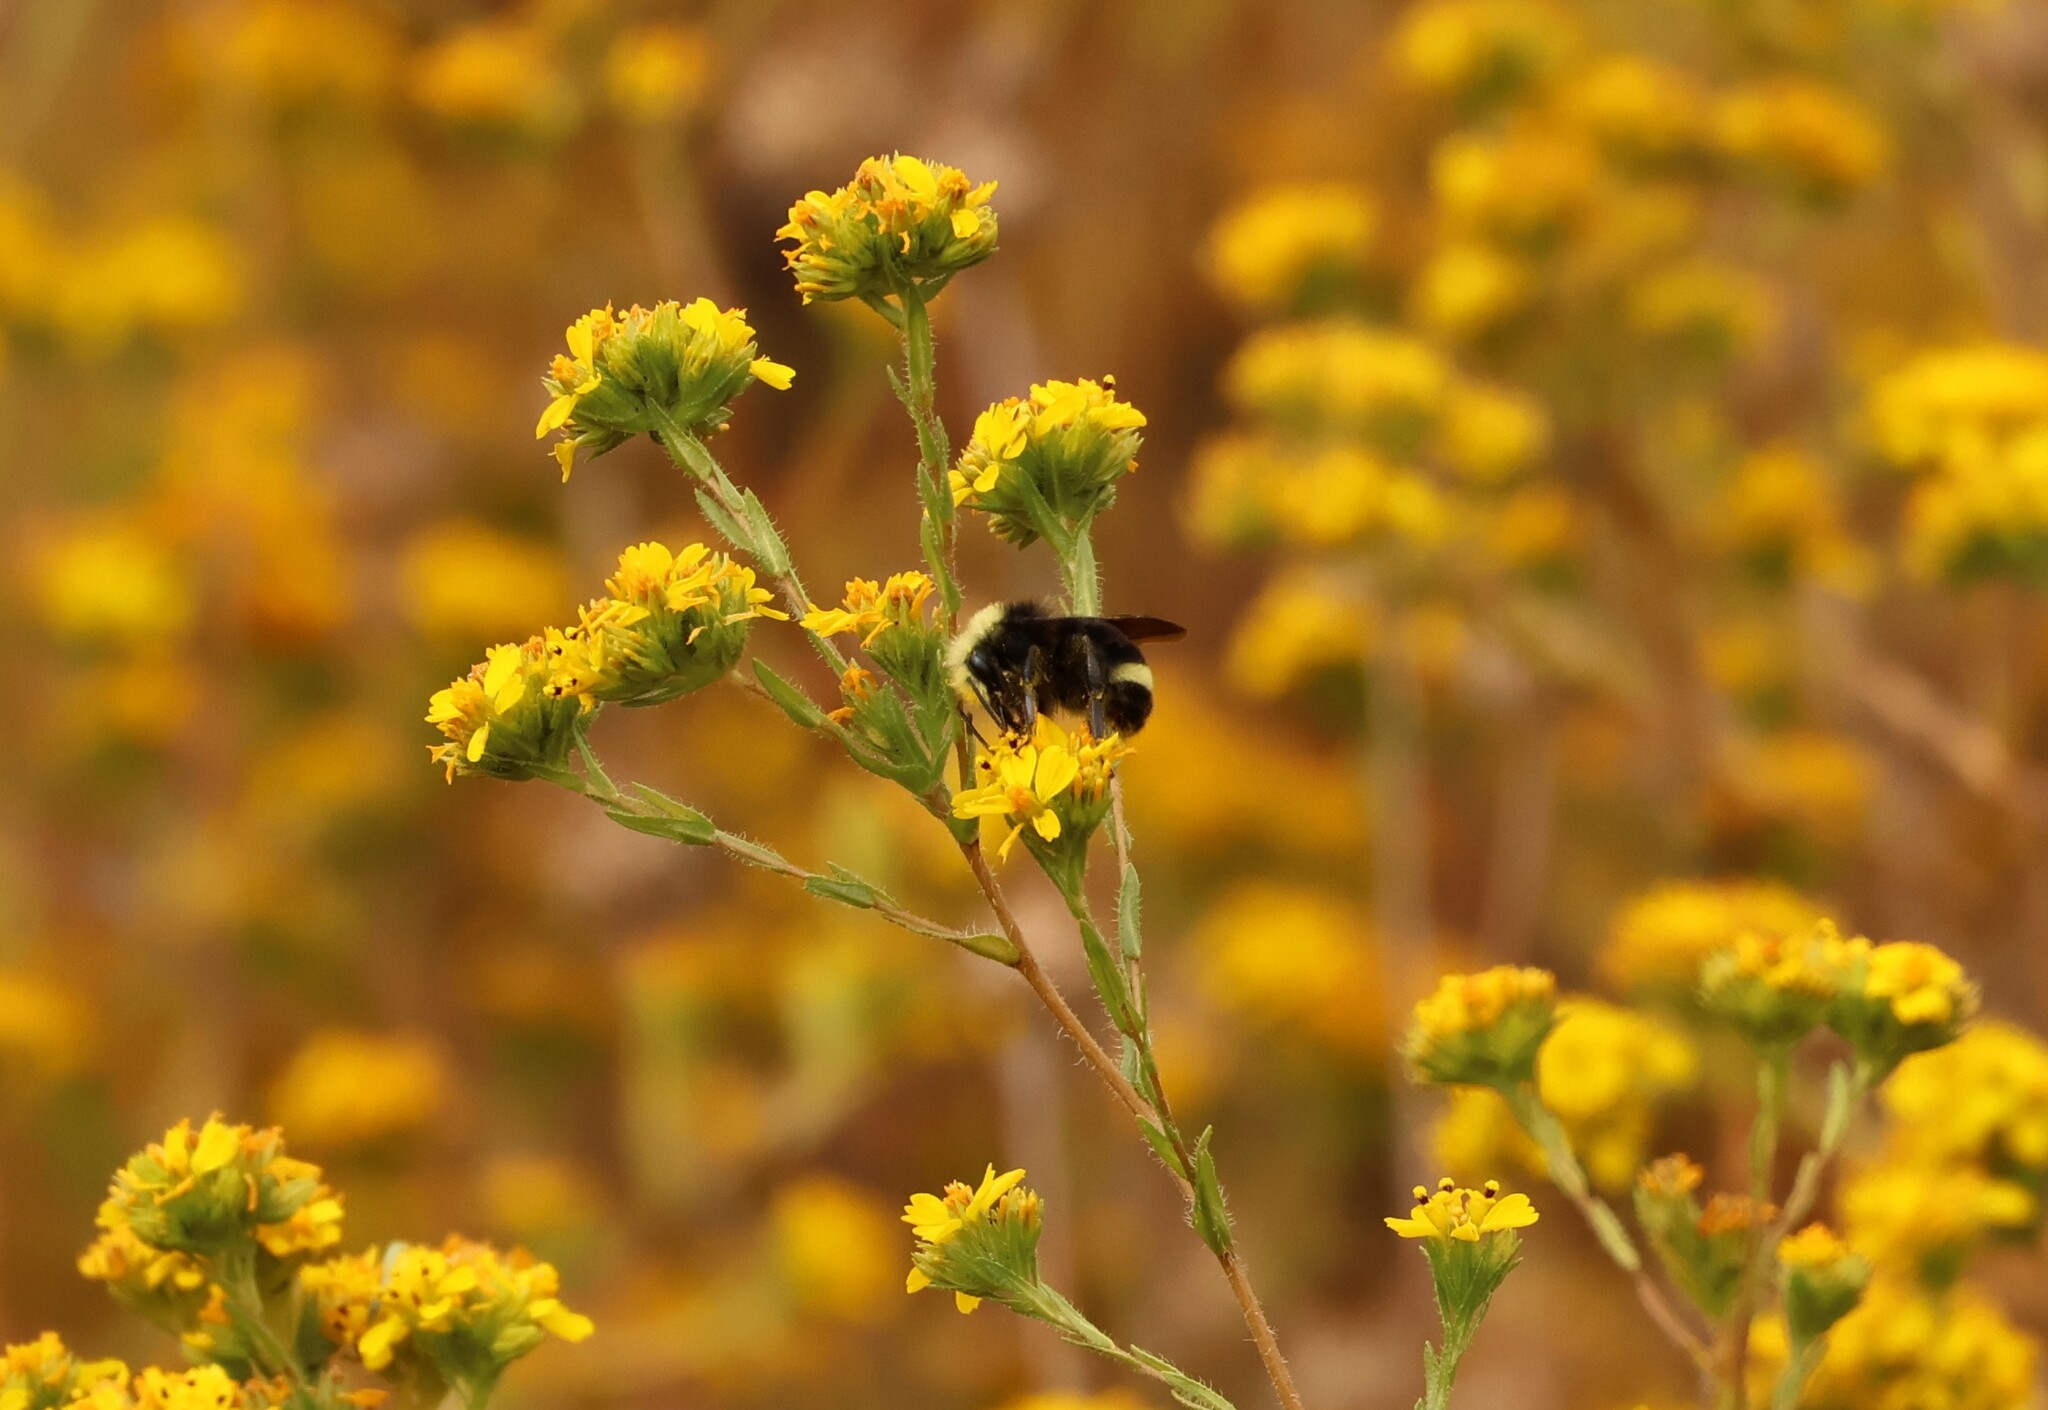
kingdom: Animalia
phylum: Arthropoda
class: Insecta
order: Hymenoptera
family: Apidae
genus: Bombus
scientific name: Bombus vosnesenskii
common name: Vosnesensky bumble bee
